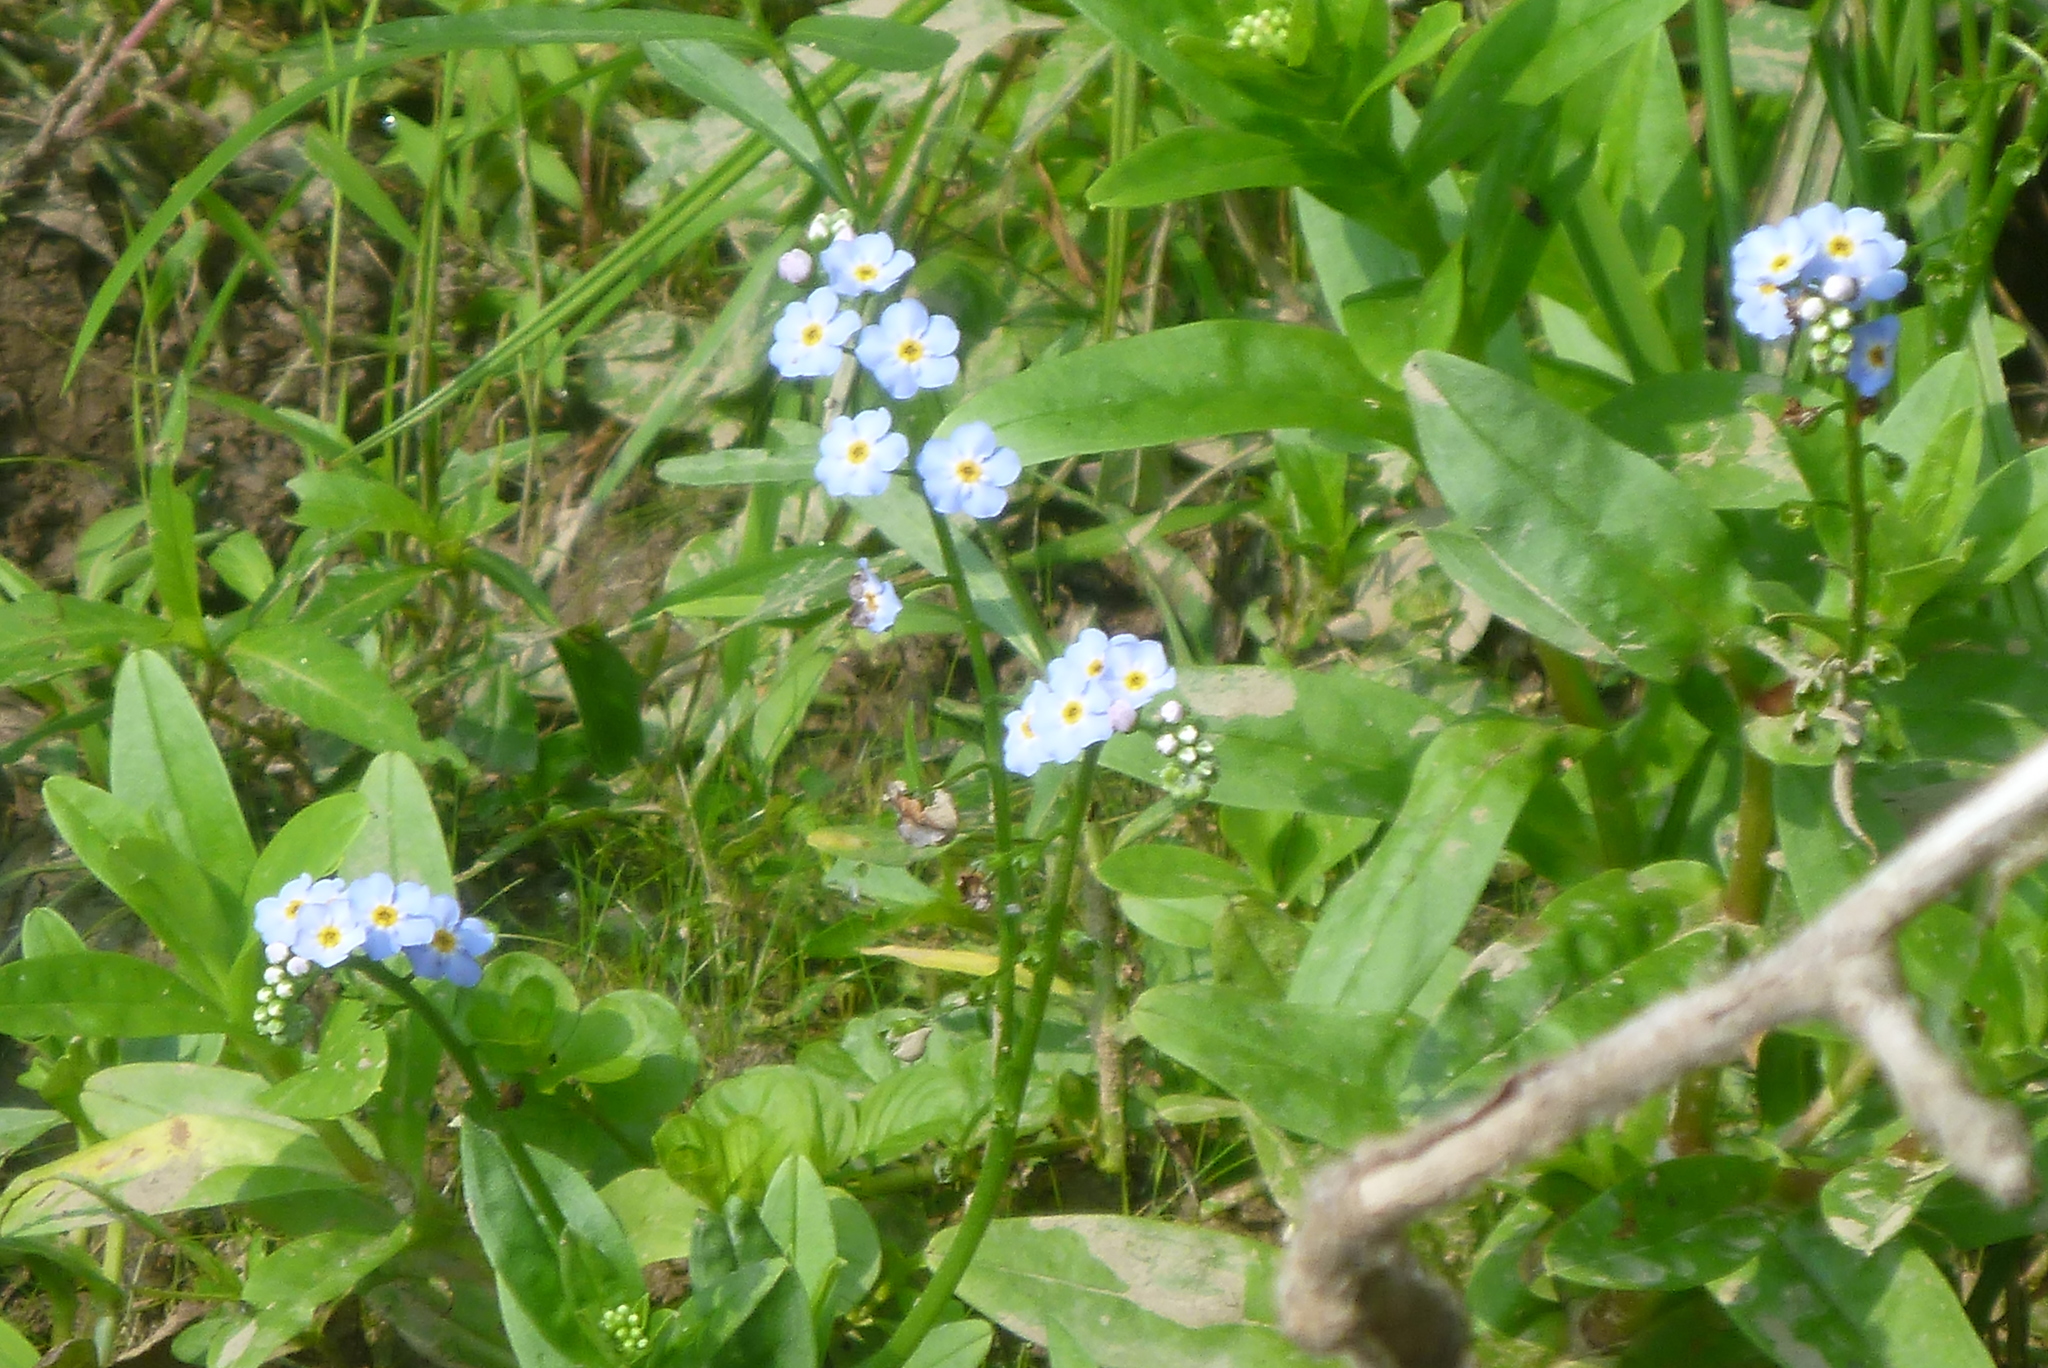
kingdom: Plantae
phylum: Tracheophyta
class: Magnoliopsida
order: Boraginales
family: Boraginaceae
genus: Myosotis
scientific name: Myosotis scorpioides
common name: Water forget-me-not
